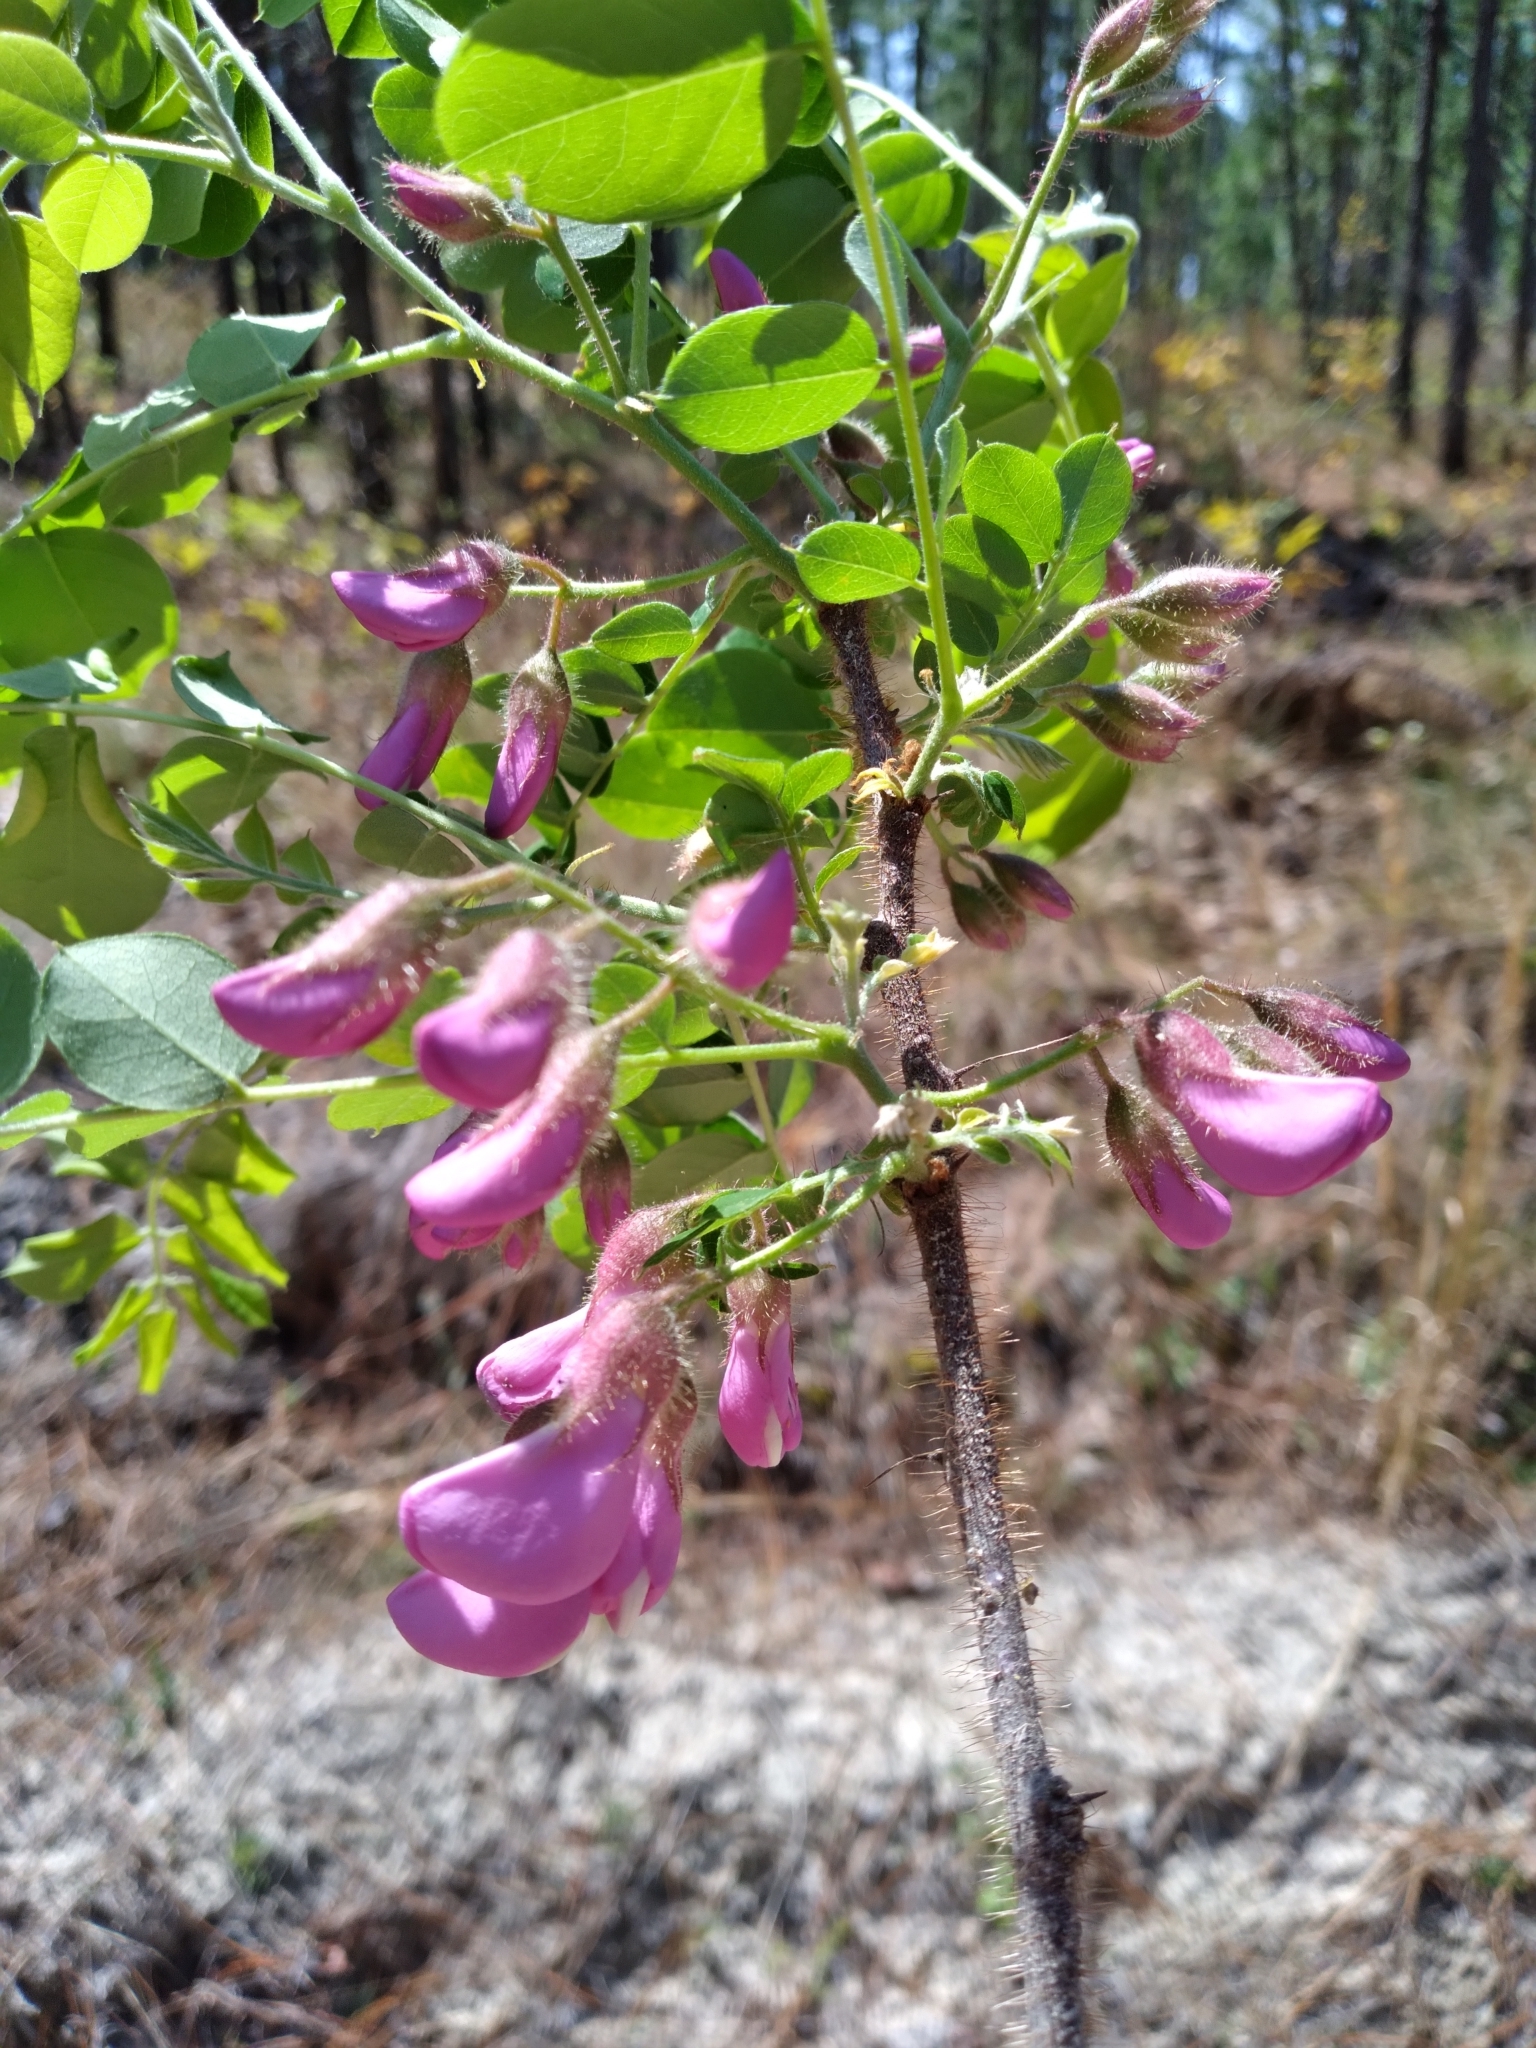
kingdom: Plantae
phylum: Tracheophyta
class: Magnoliopsida
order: Fabales
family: Fabaceae
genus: Robinia
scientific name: Robinia hispida
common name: Bristly locust
